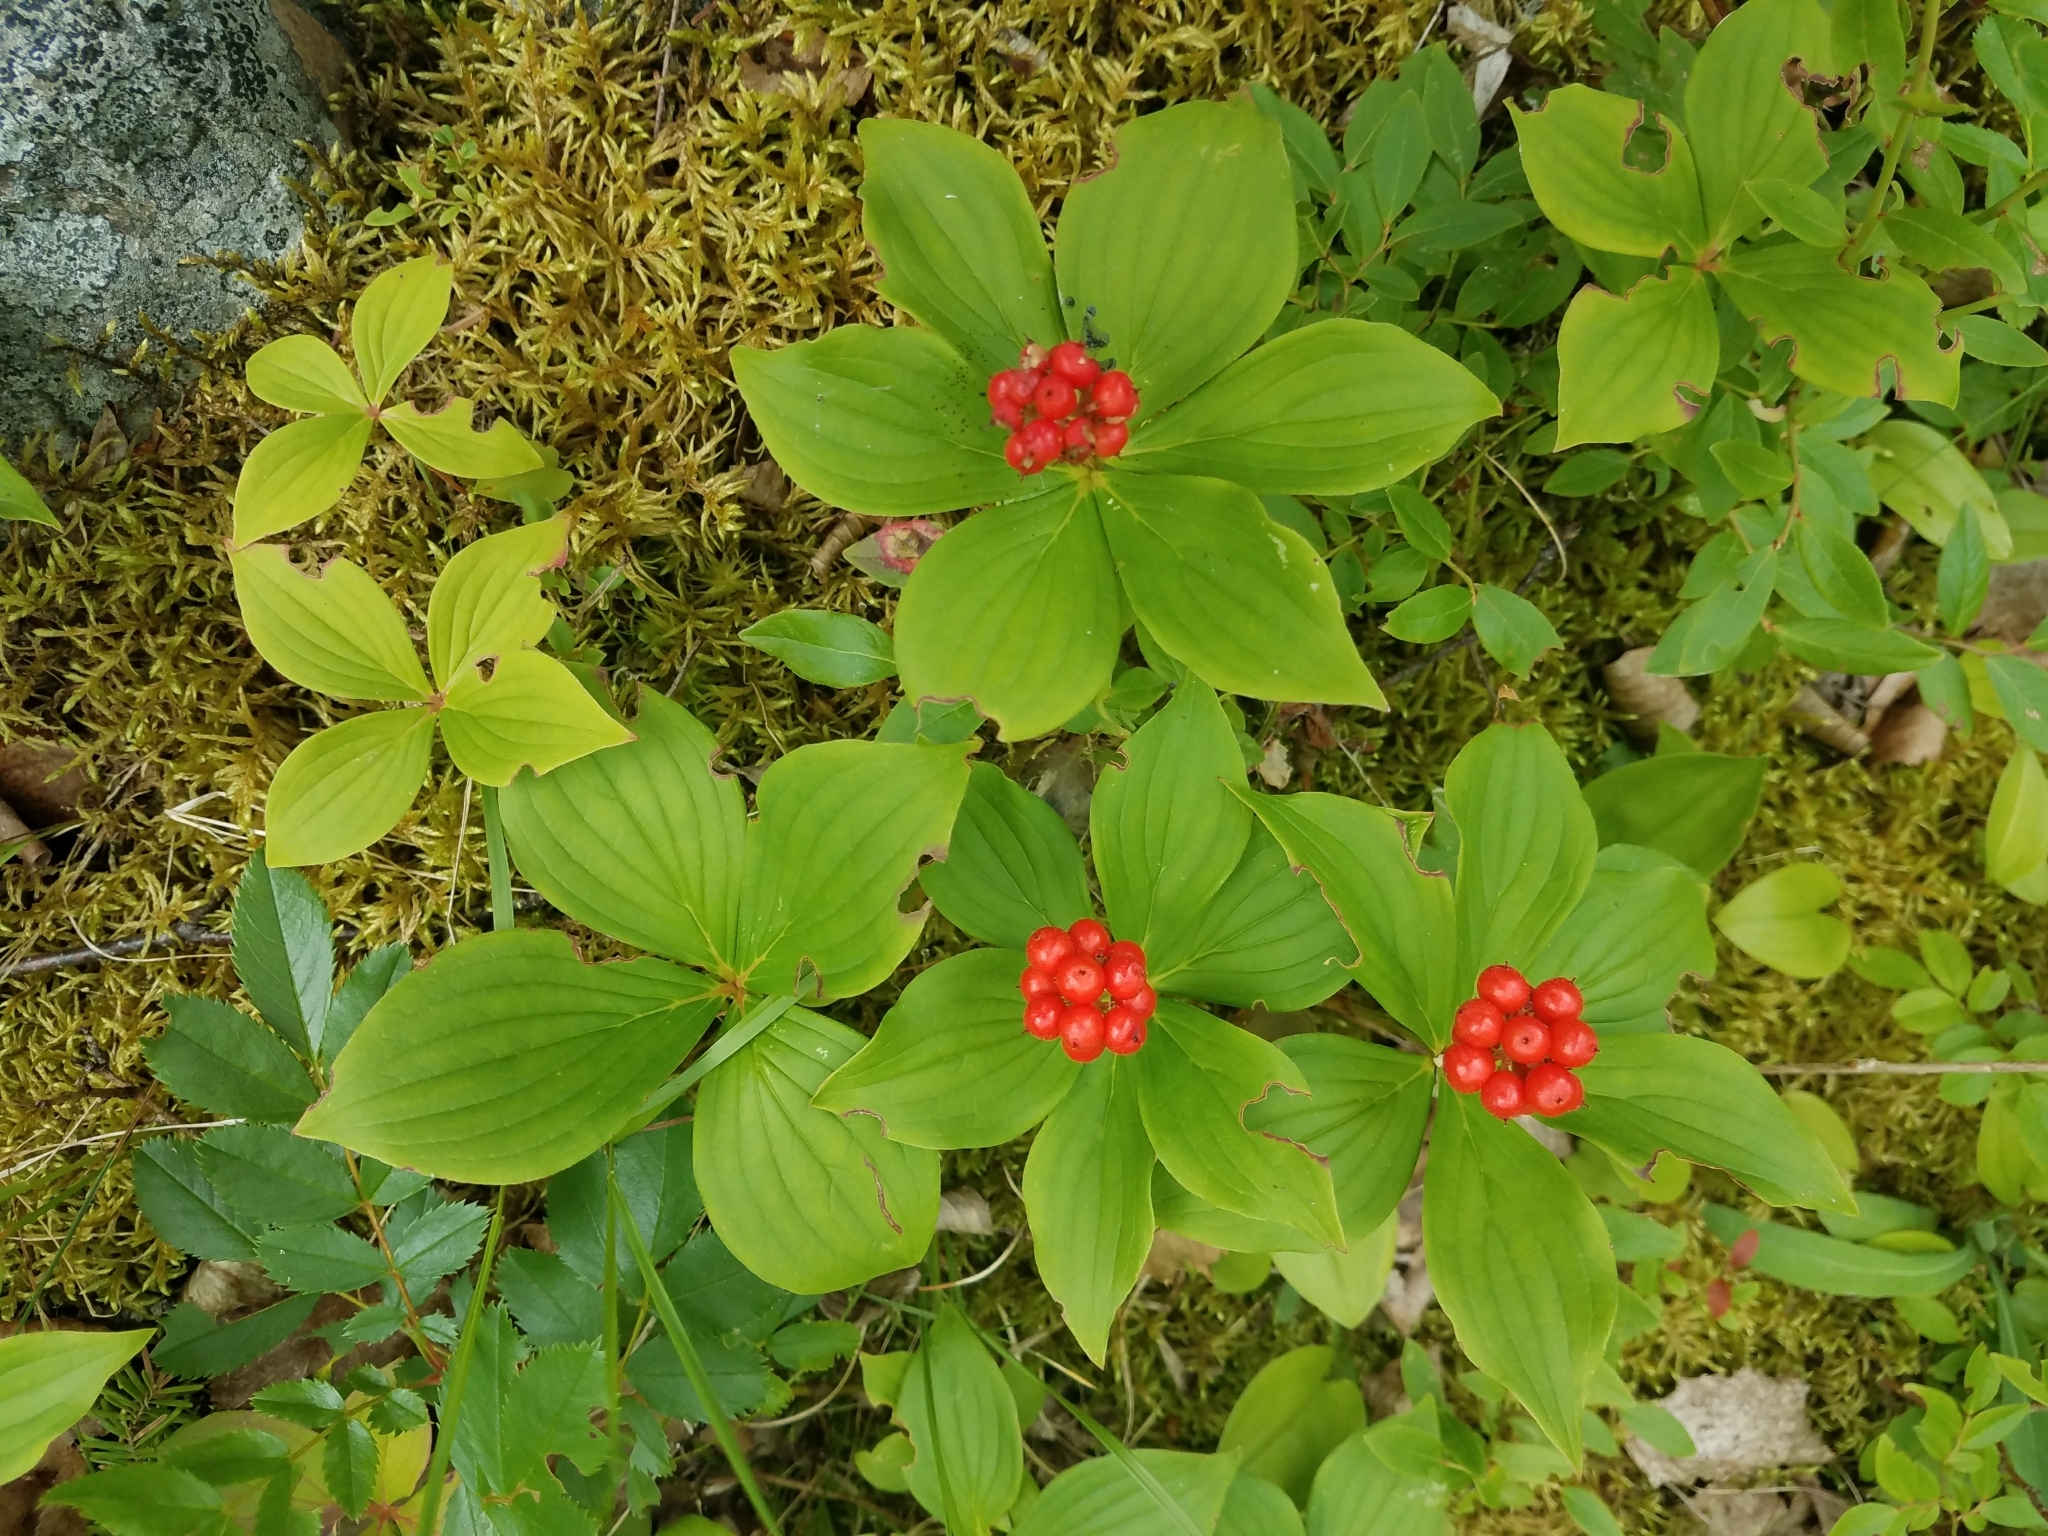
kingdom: Plantae
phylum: Tracheophyta
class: Magnoliopsida
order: Cornales
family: Cornaceae
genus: Cornus
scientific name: Cornus canadensis
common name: Creeping dogwood
